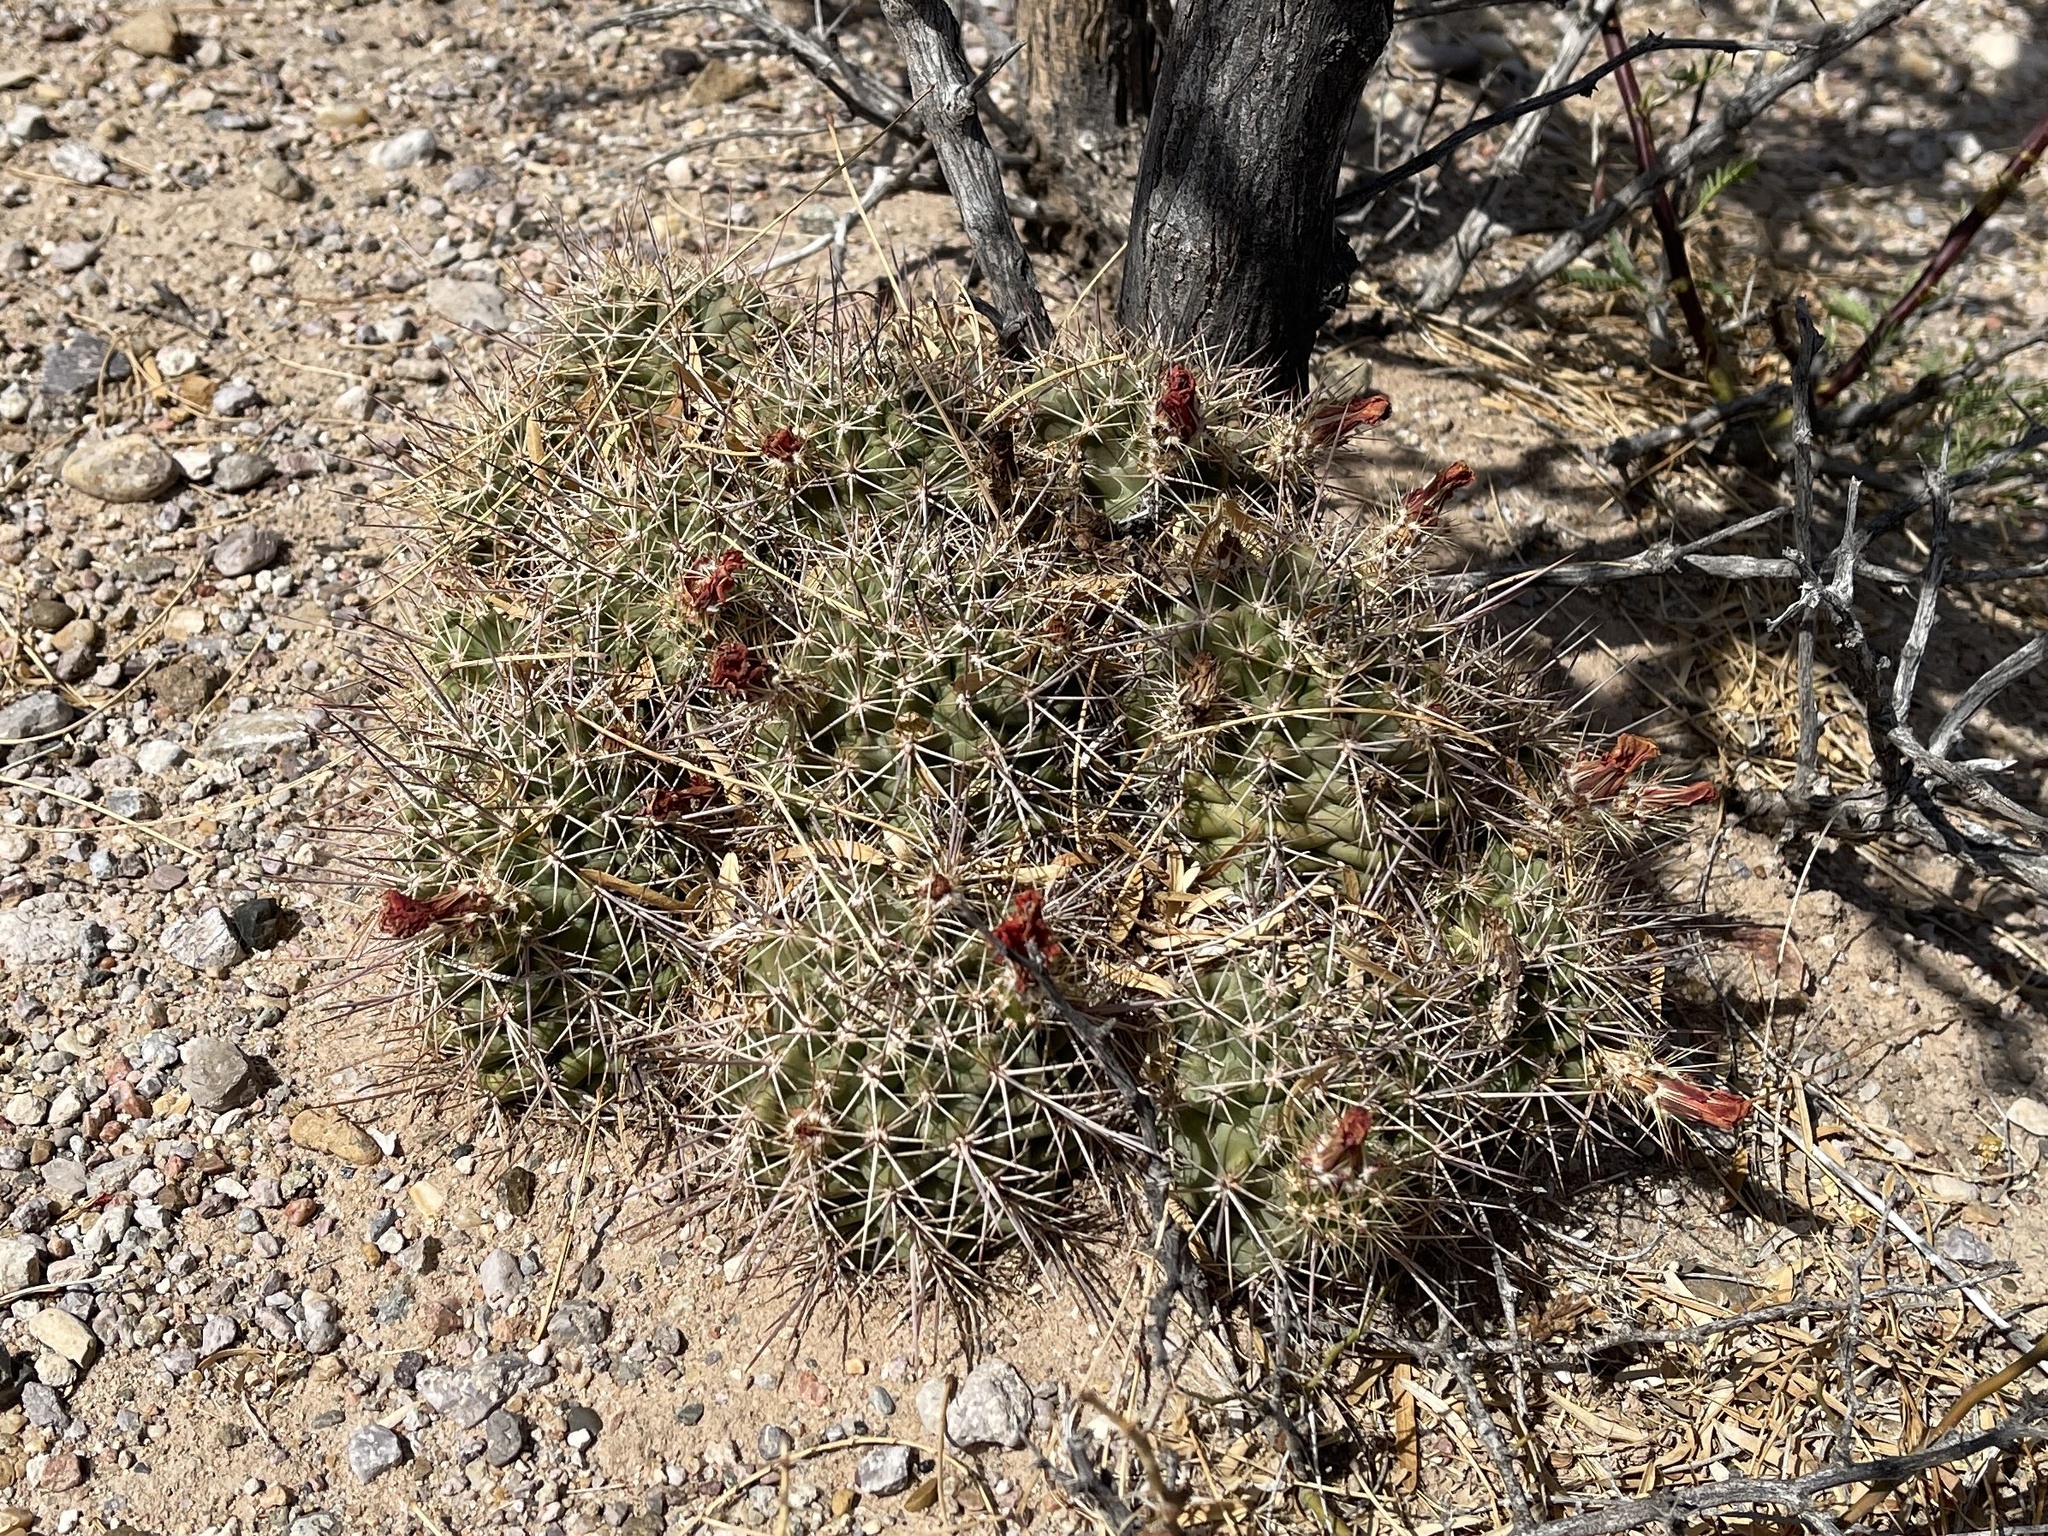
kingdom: Plantae
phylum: Tracheophyta
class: Magnoliopsida
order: Caryophyllales
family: Cactaceae
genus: Echinocereus
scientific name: Echinocereus coccineus
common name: Scarlet hedgehog cactus
